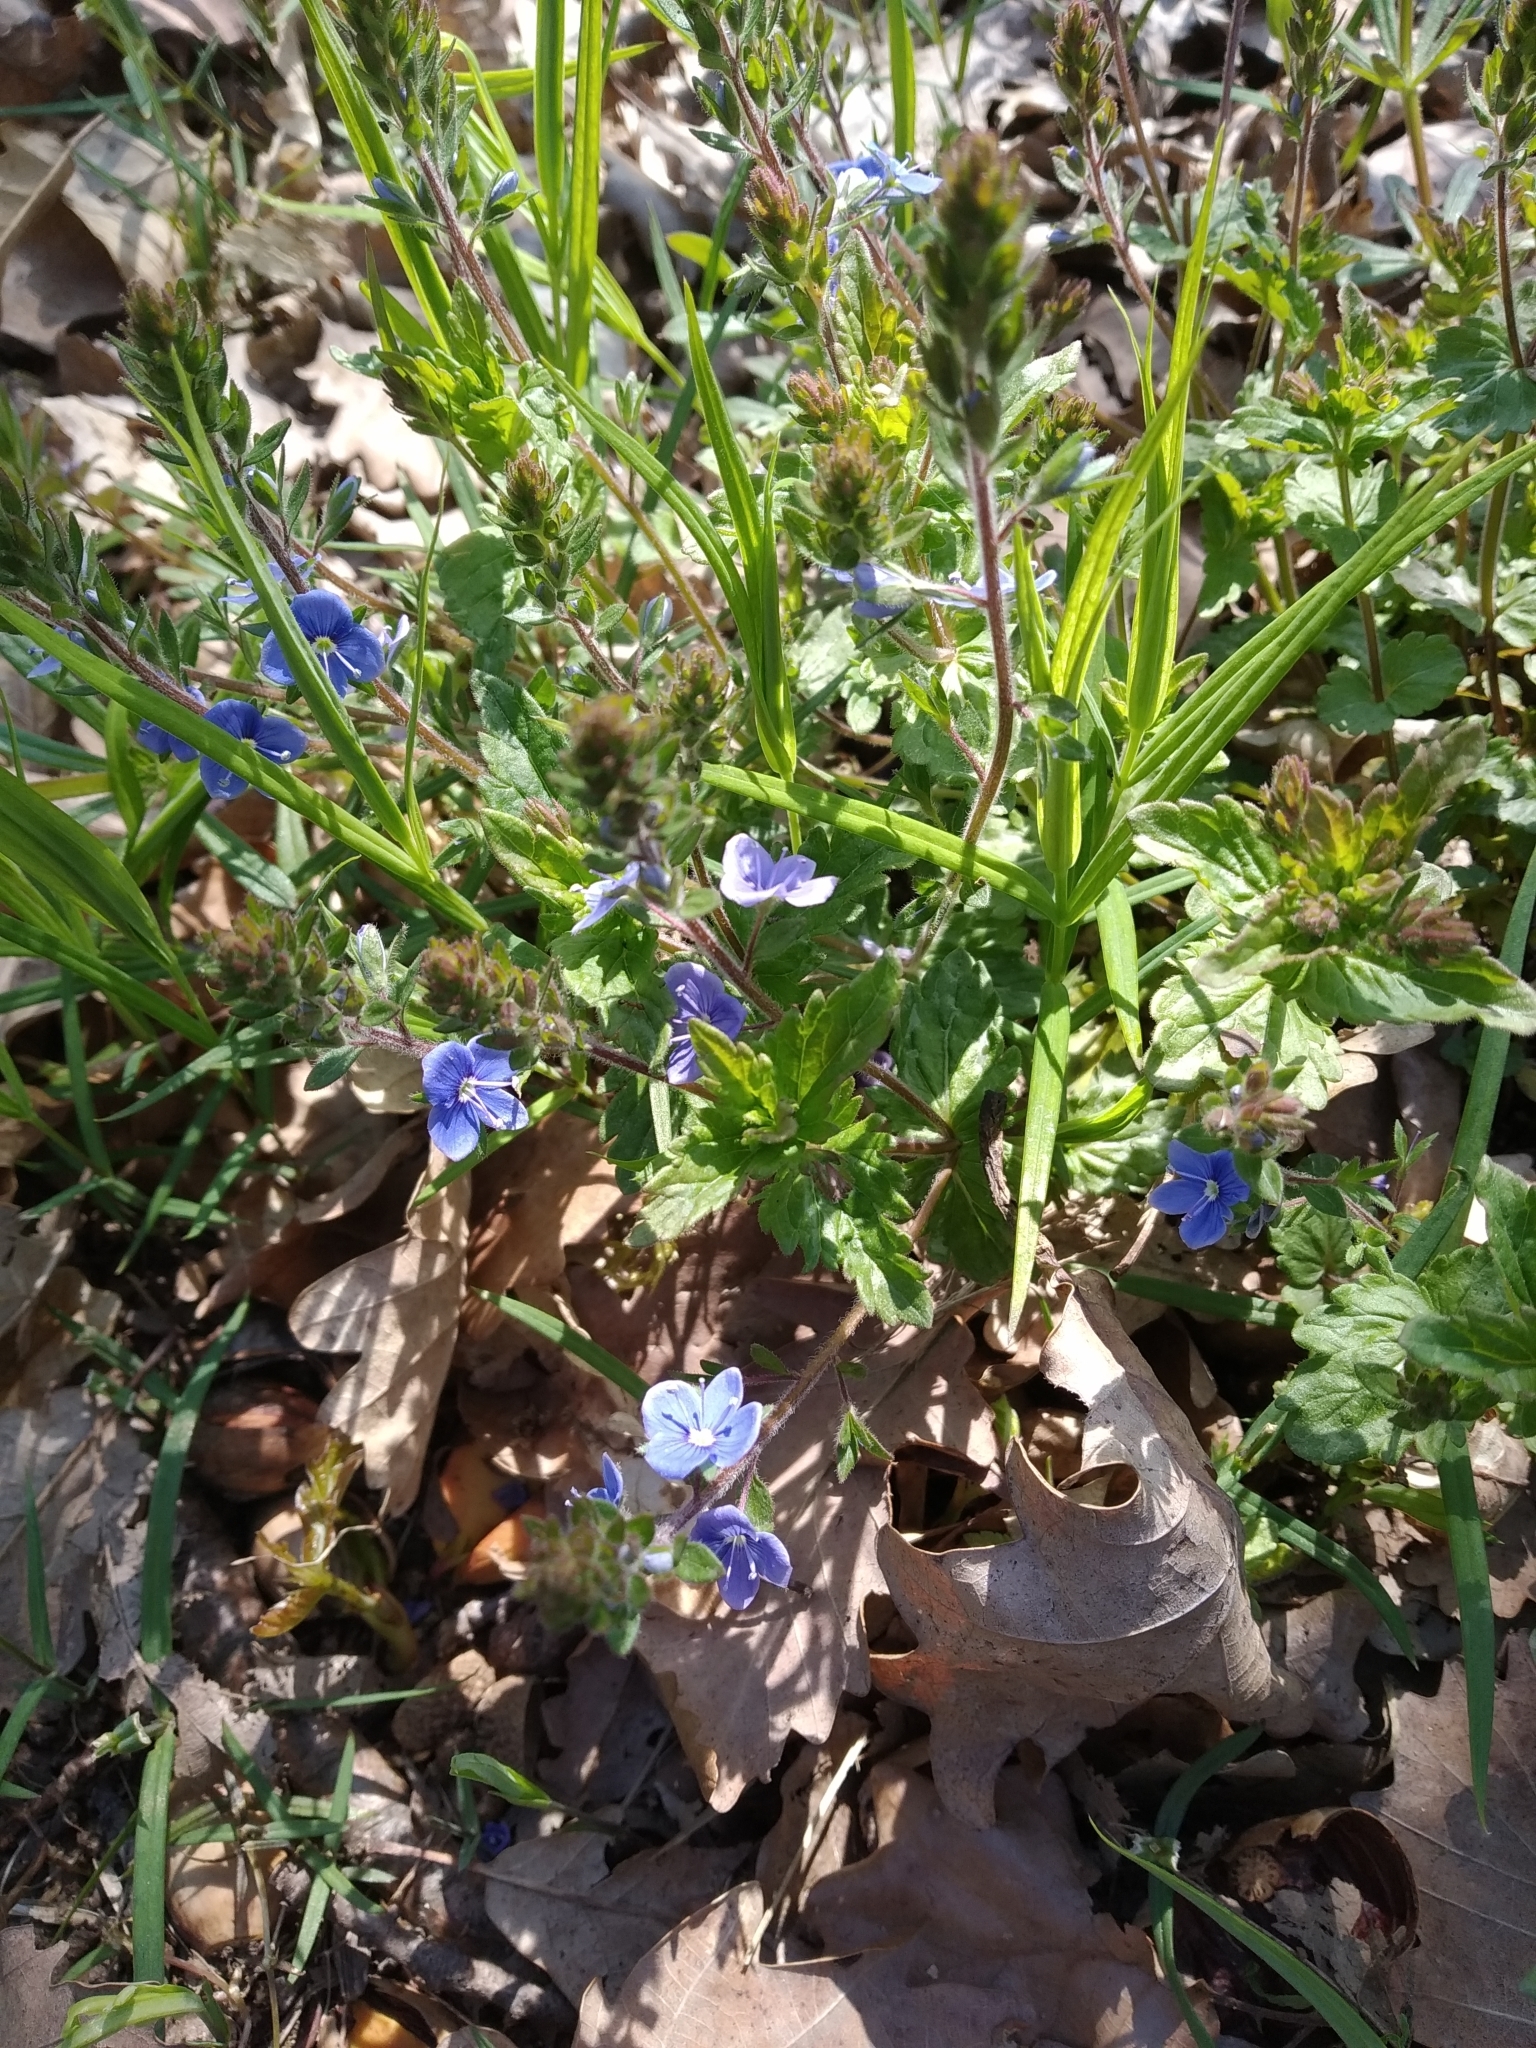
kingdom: Plantae
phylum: Tracheophyta
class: Magnoliopsida
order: Lamiales
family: Plantaginaceae
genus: Veronica
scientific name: Veronica chamaedrys
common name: Germander speedwell
